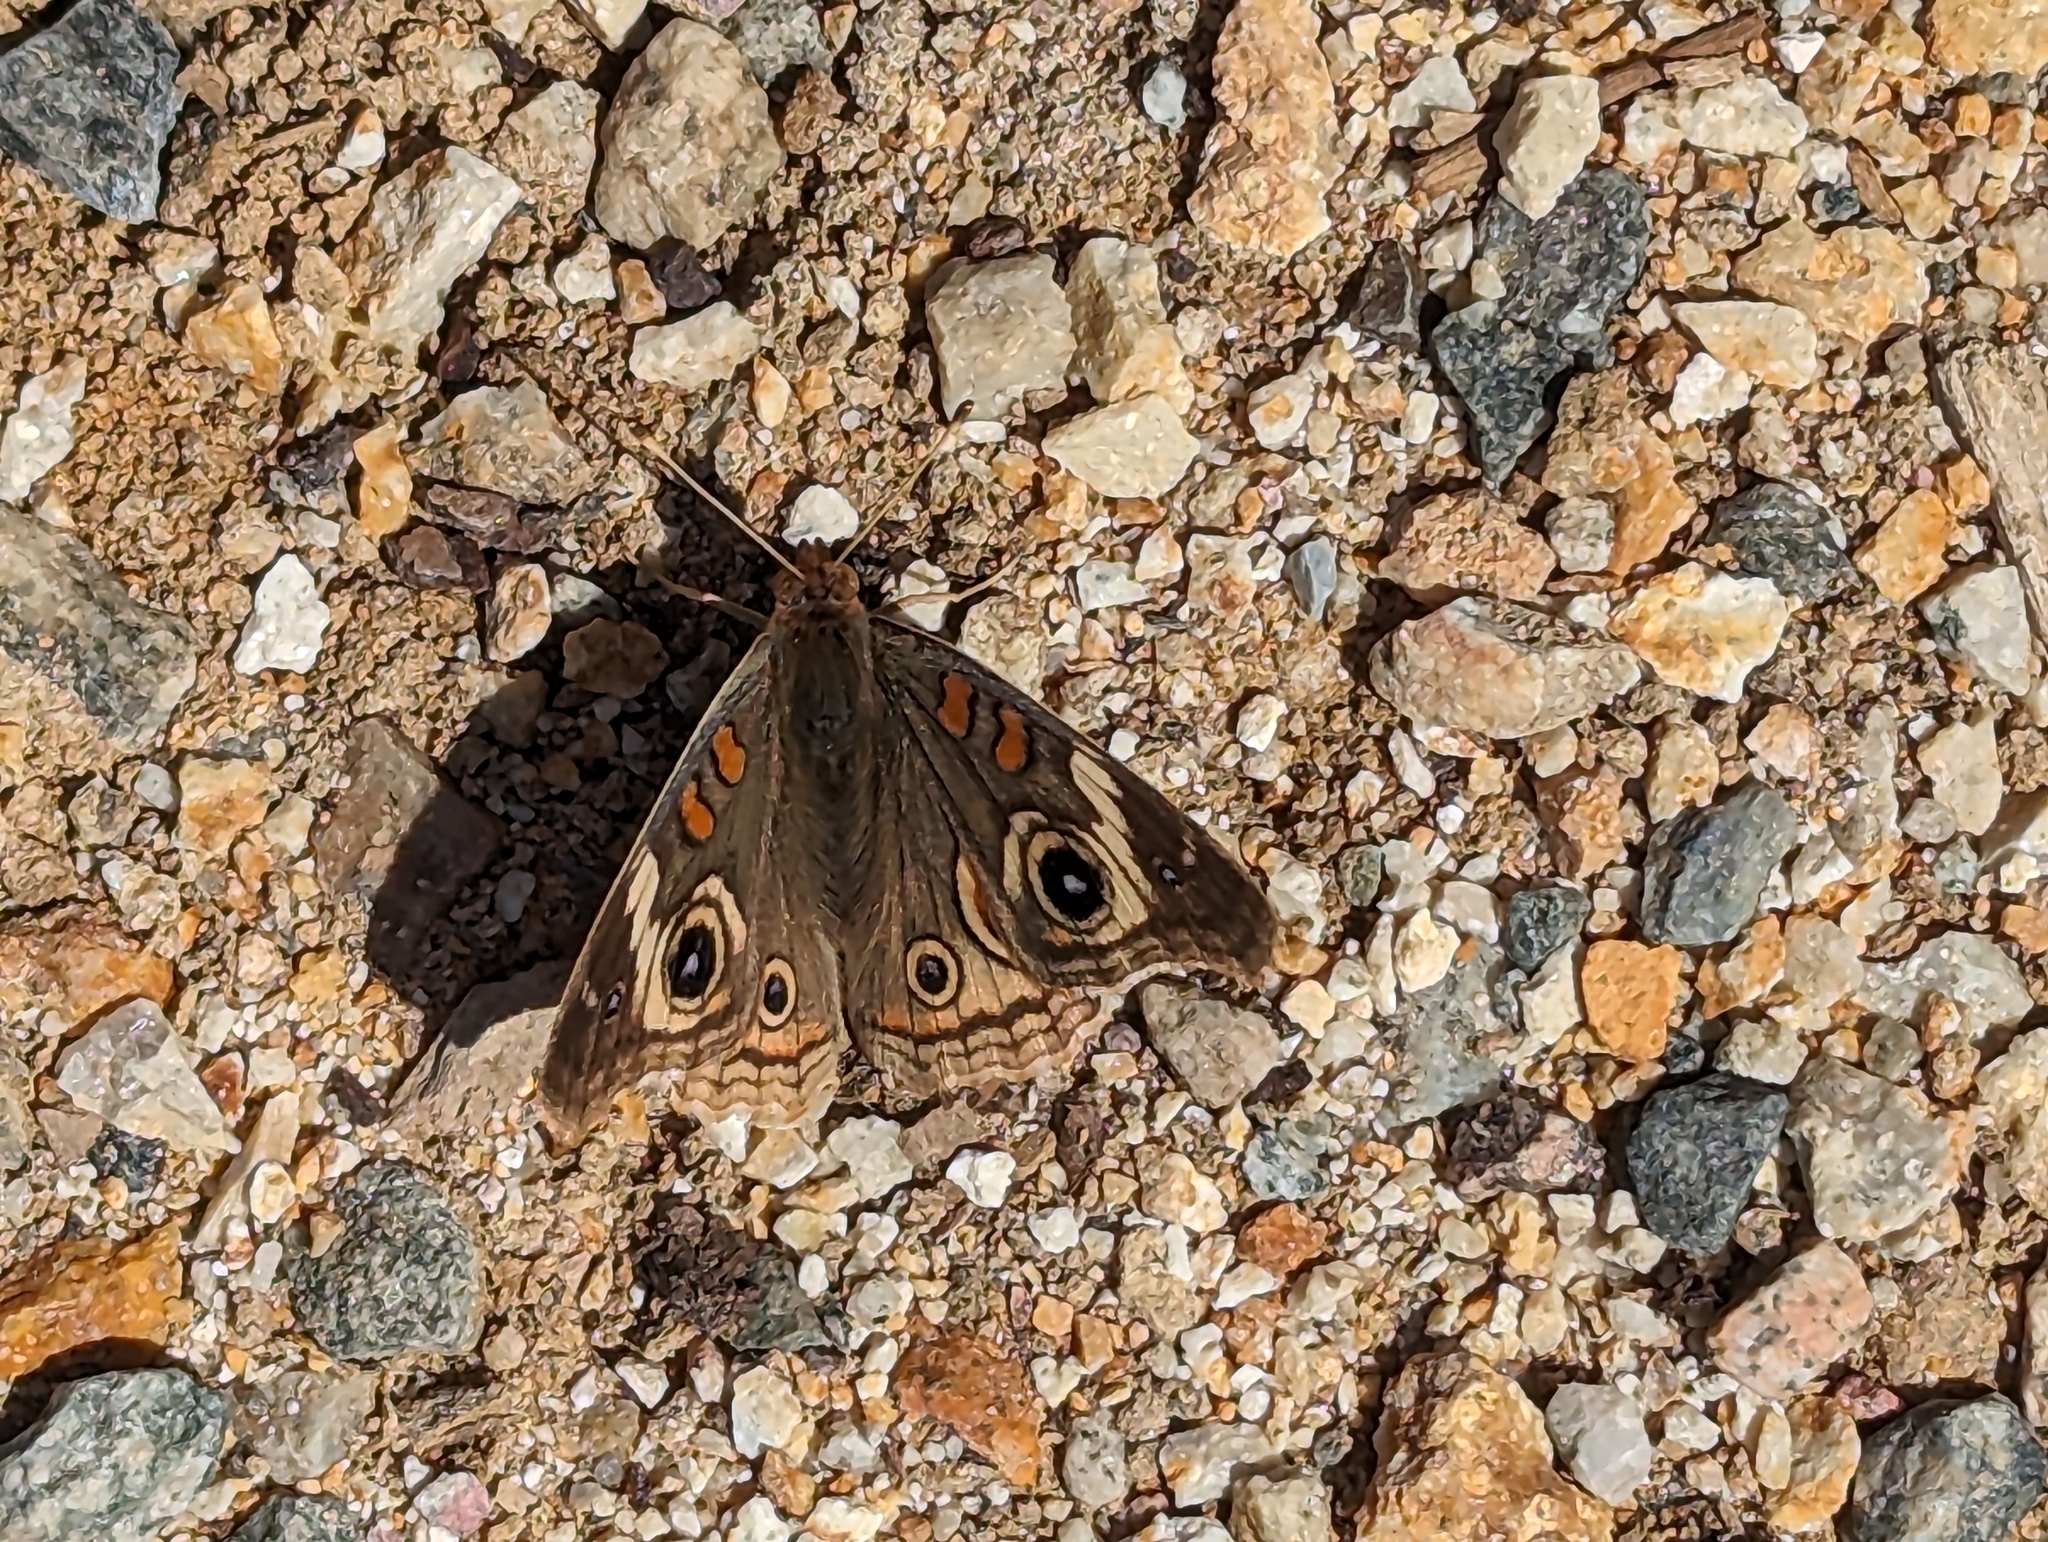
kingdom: Animalia
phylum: Arthropoda
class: Insecta
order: Lepidoptera
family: Nymphalidae
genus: Junonia
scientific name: Junonia grisea
